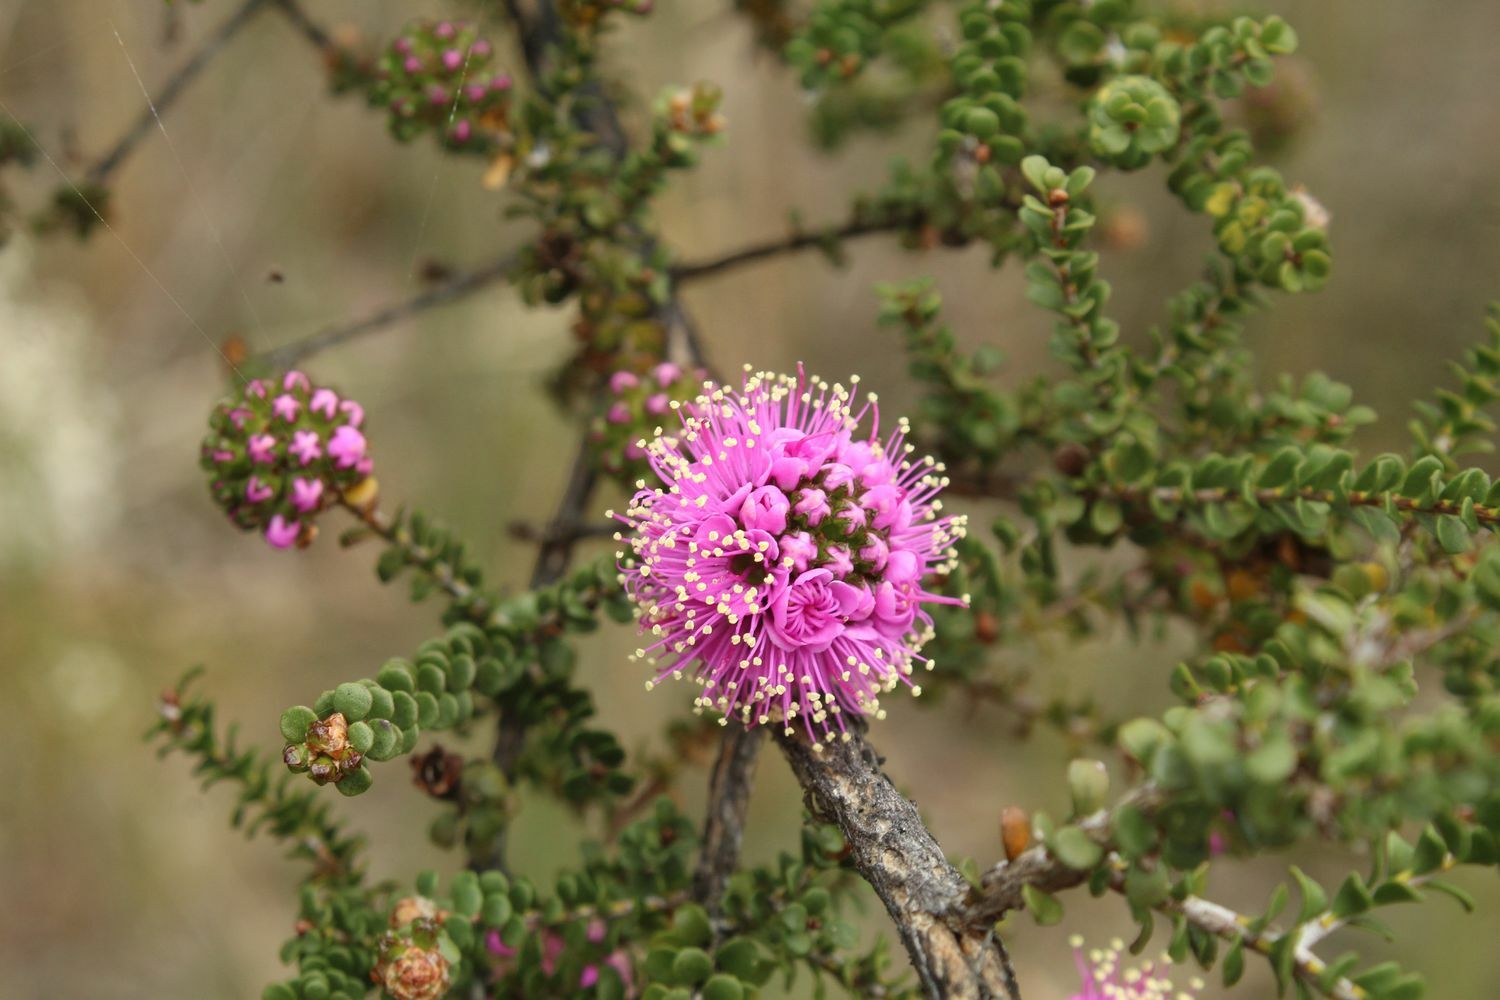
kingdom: Plantae
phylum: Tracheophyta
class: Magnoliopsida
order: Myrtales
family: Myrtaceae
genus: Kunzea
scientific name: Kunzea recurva
